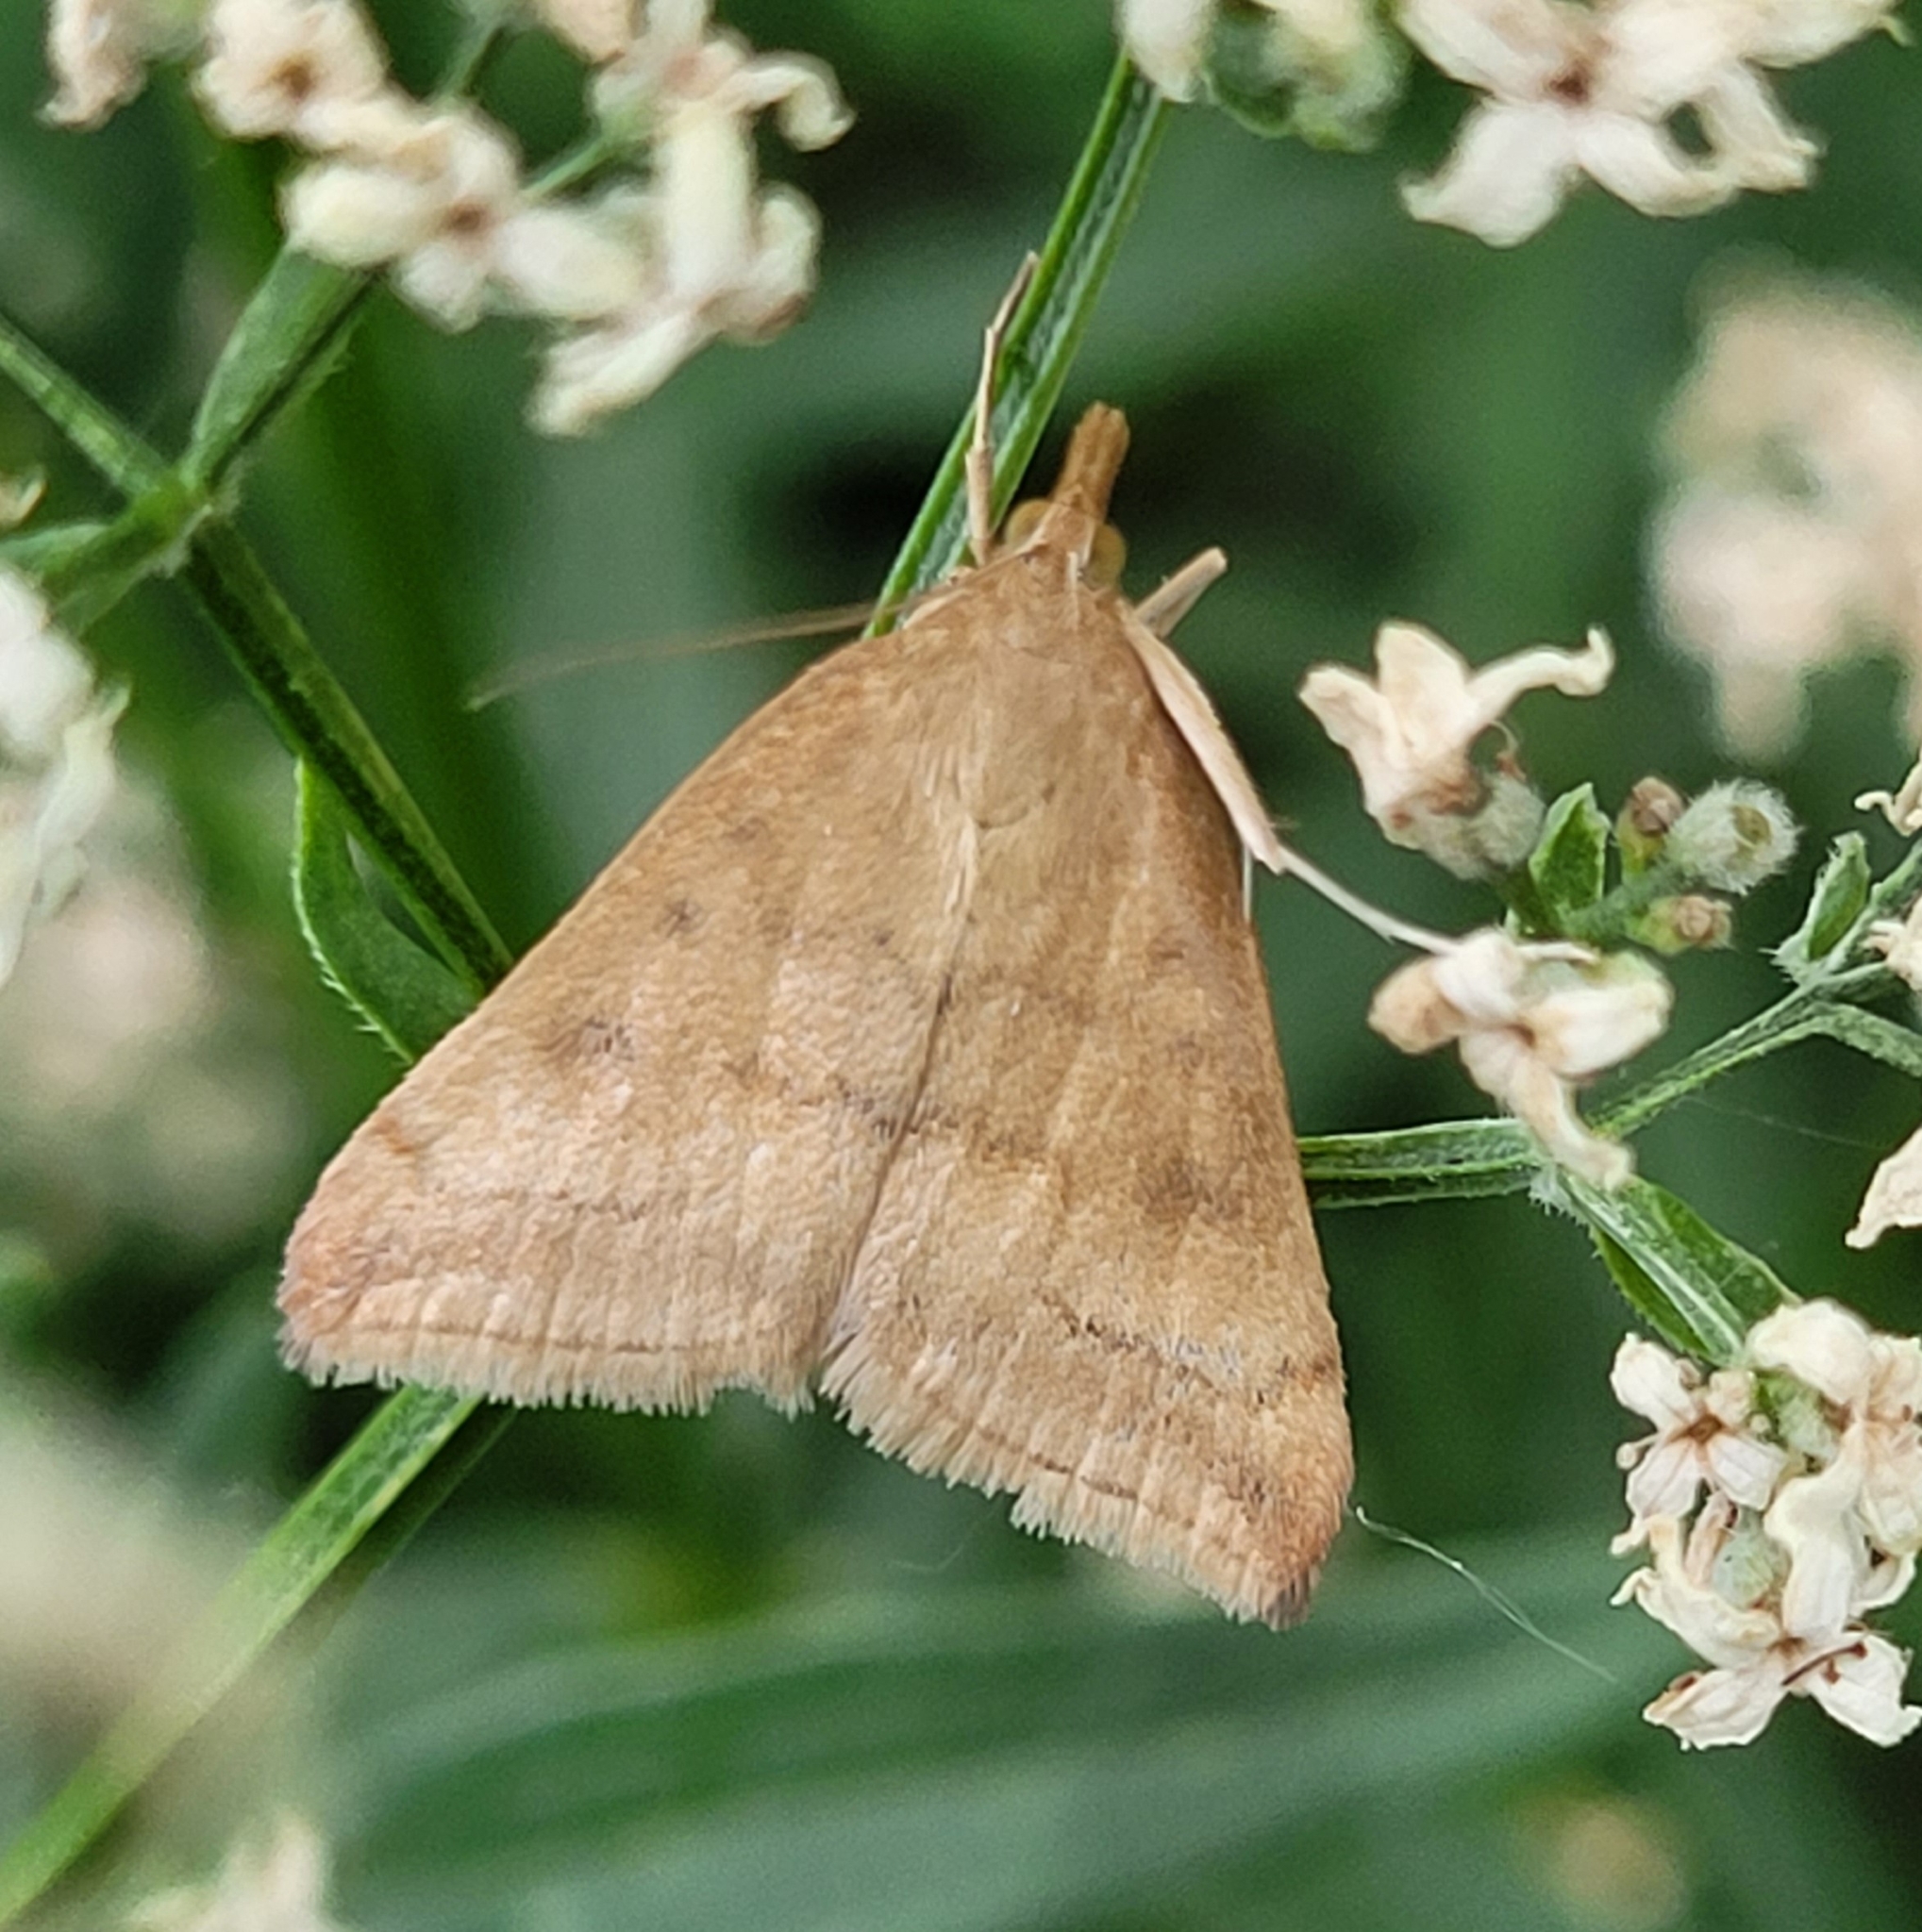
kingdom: Animalia
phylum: Arthropoda
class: Insecta
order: Lepidoptera
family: Crambidae
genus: Pyrausta
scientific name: Pyrausta fodinalis
